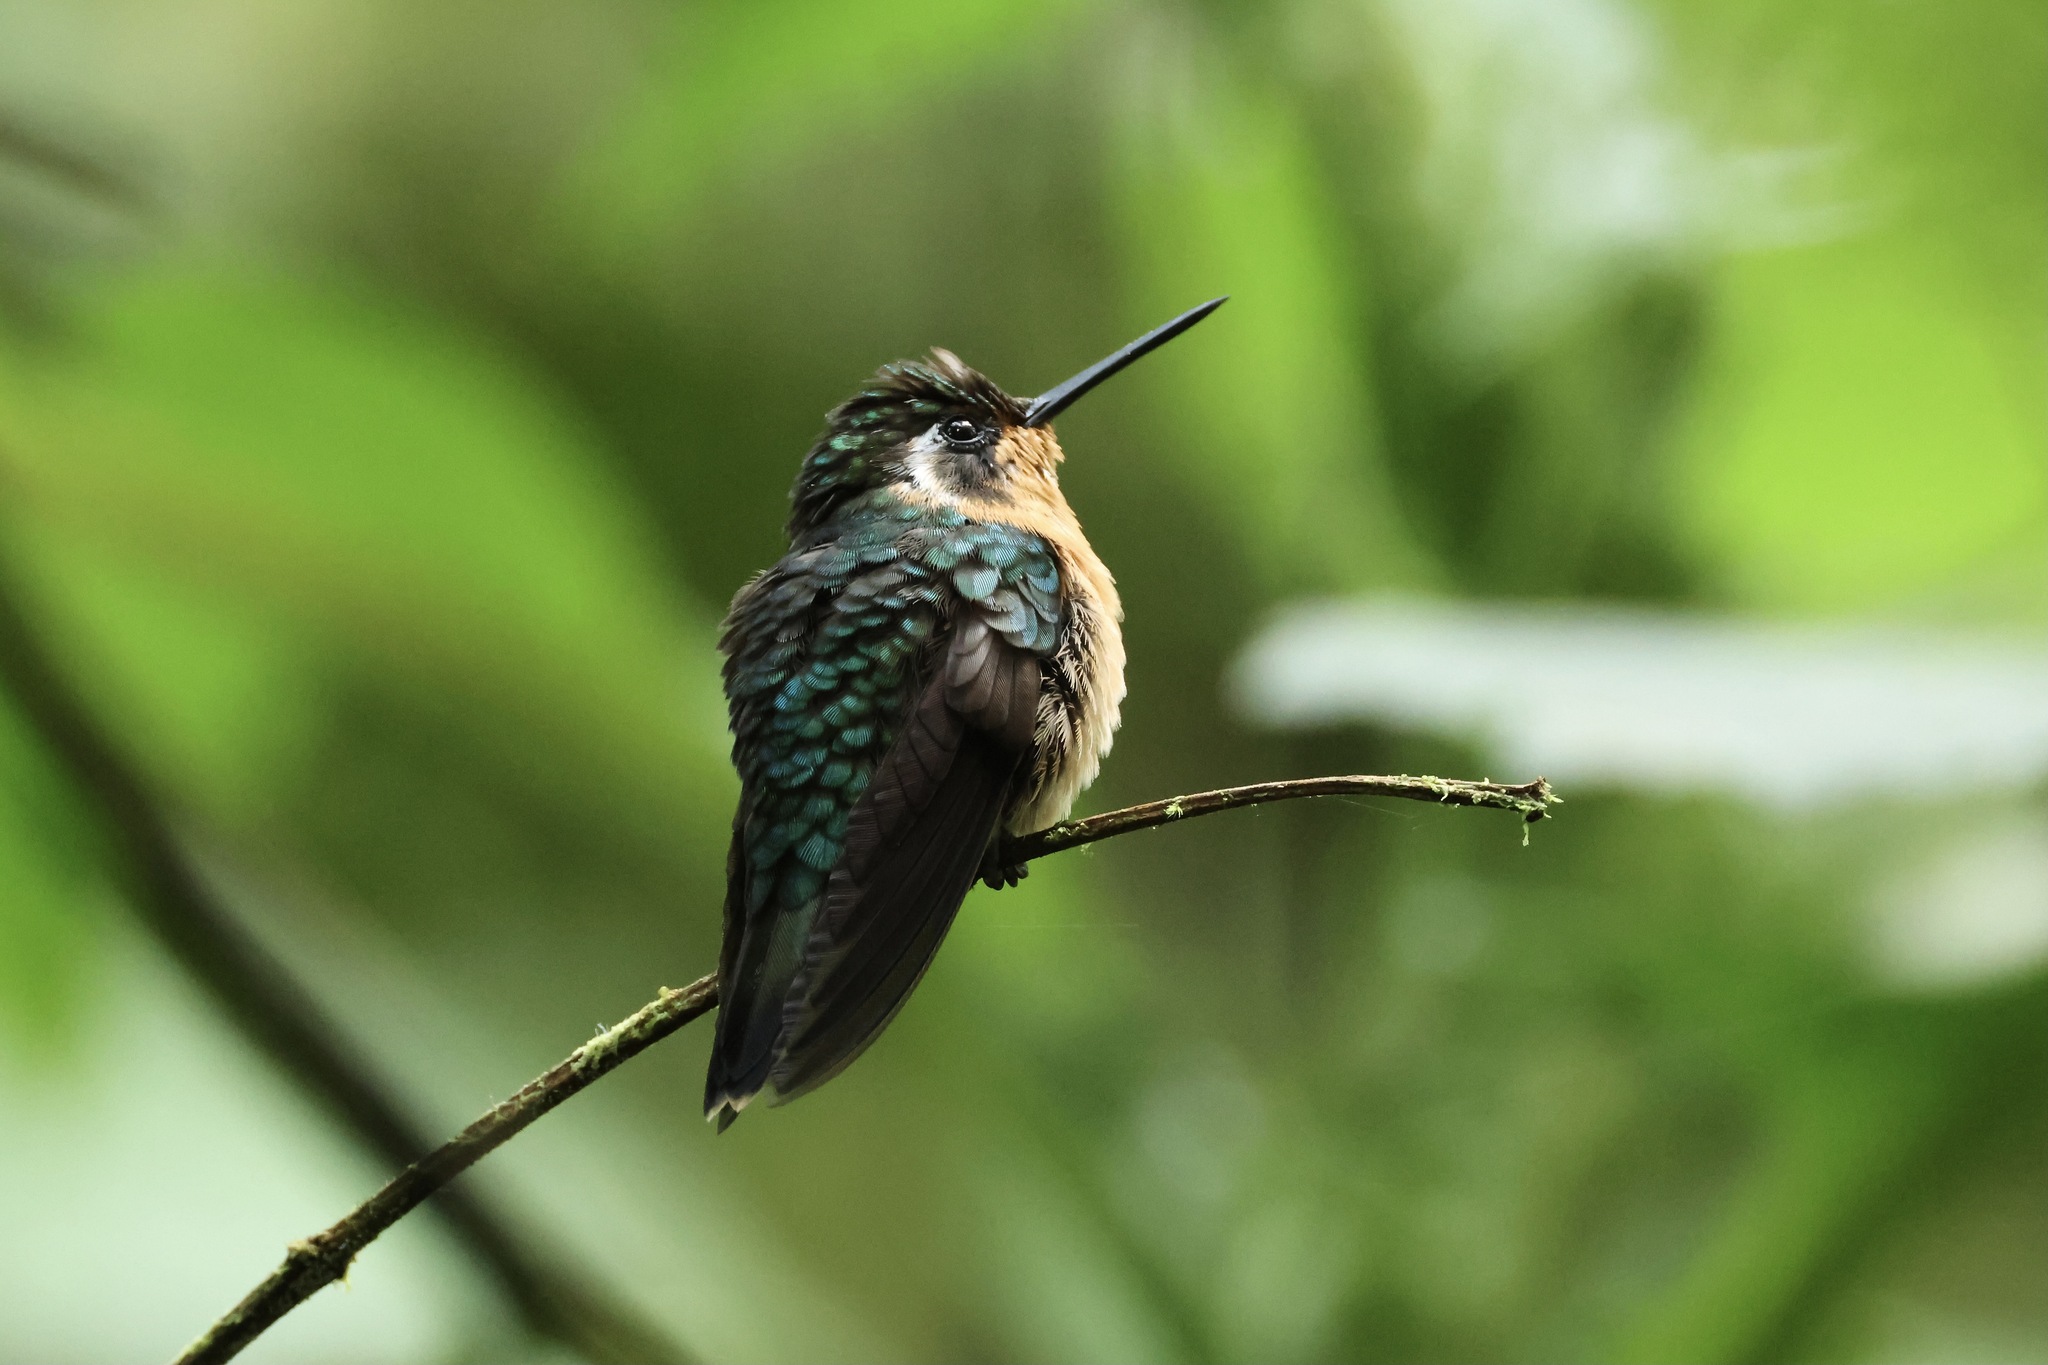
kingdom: Animalia
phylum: Chordata
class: Aves
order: Apodiformes
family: Trochilidae
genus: Lampornis
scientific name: Lampornis calolaemus
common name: Purple-throated mountain-gem
